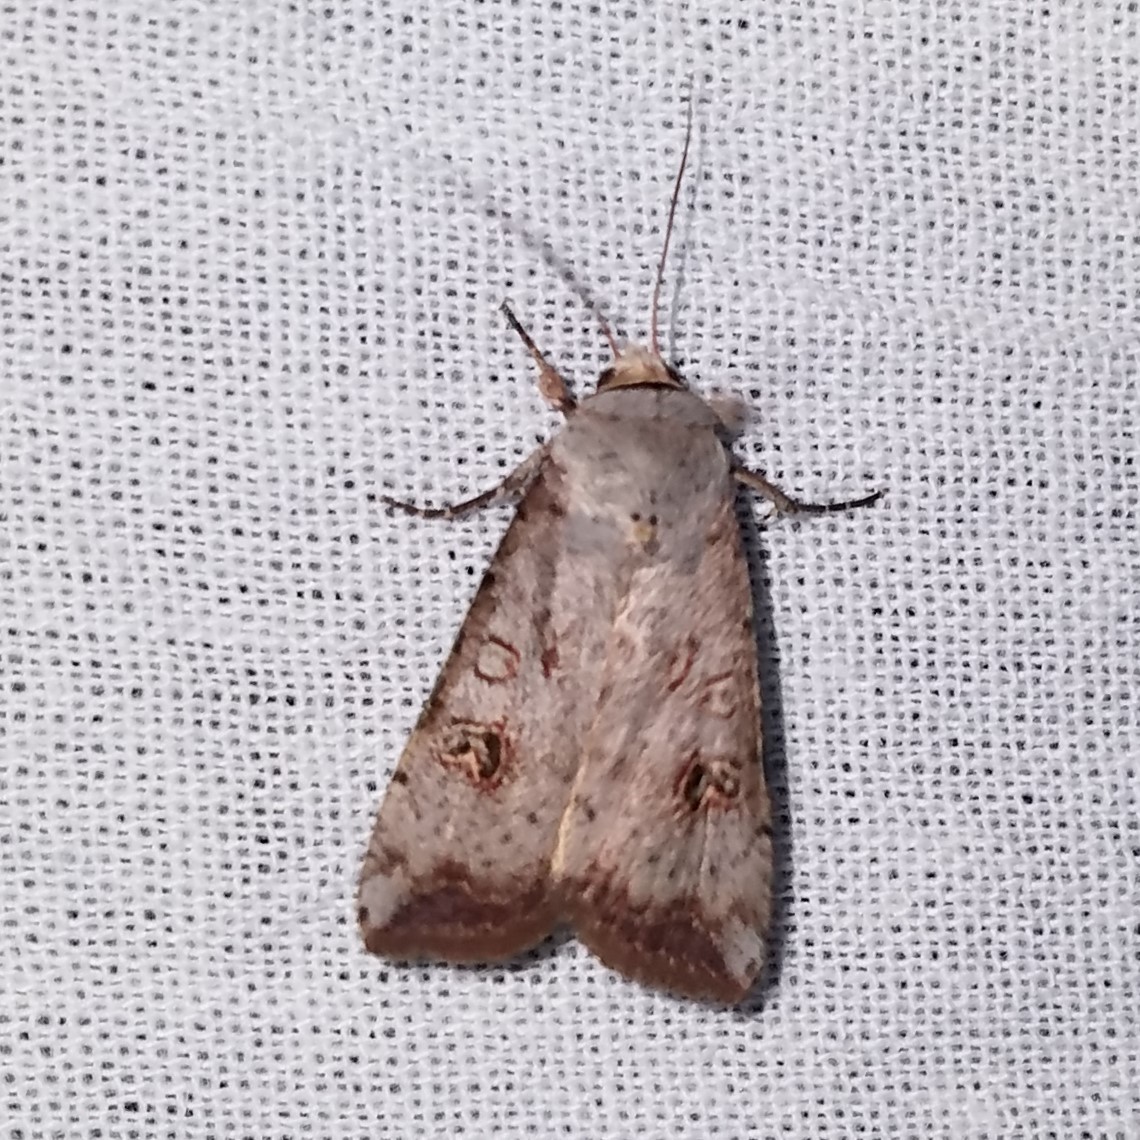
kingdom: Animalia
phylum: Arthropoda
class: Insecta
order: Lepidoptera
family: Noctuidae
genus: Anicla
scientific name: Anicla infecta
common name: Green cutworm
